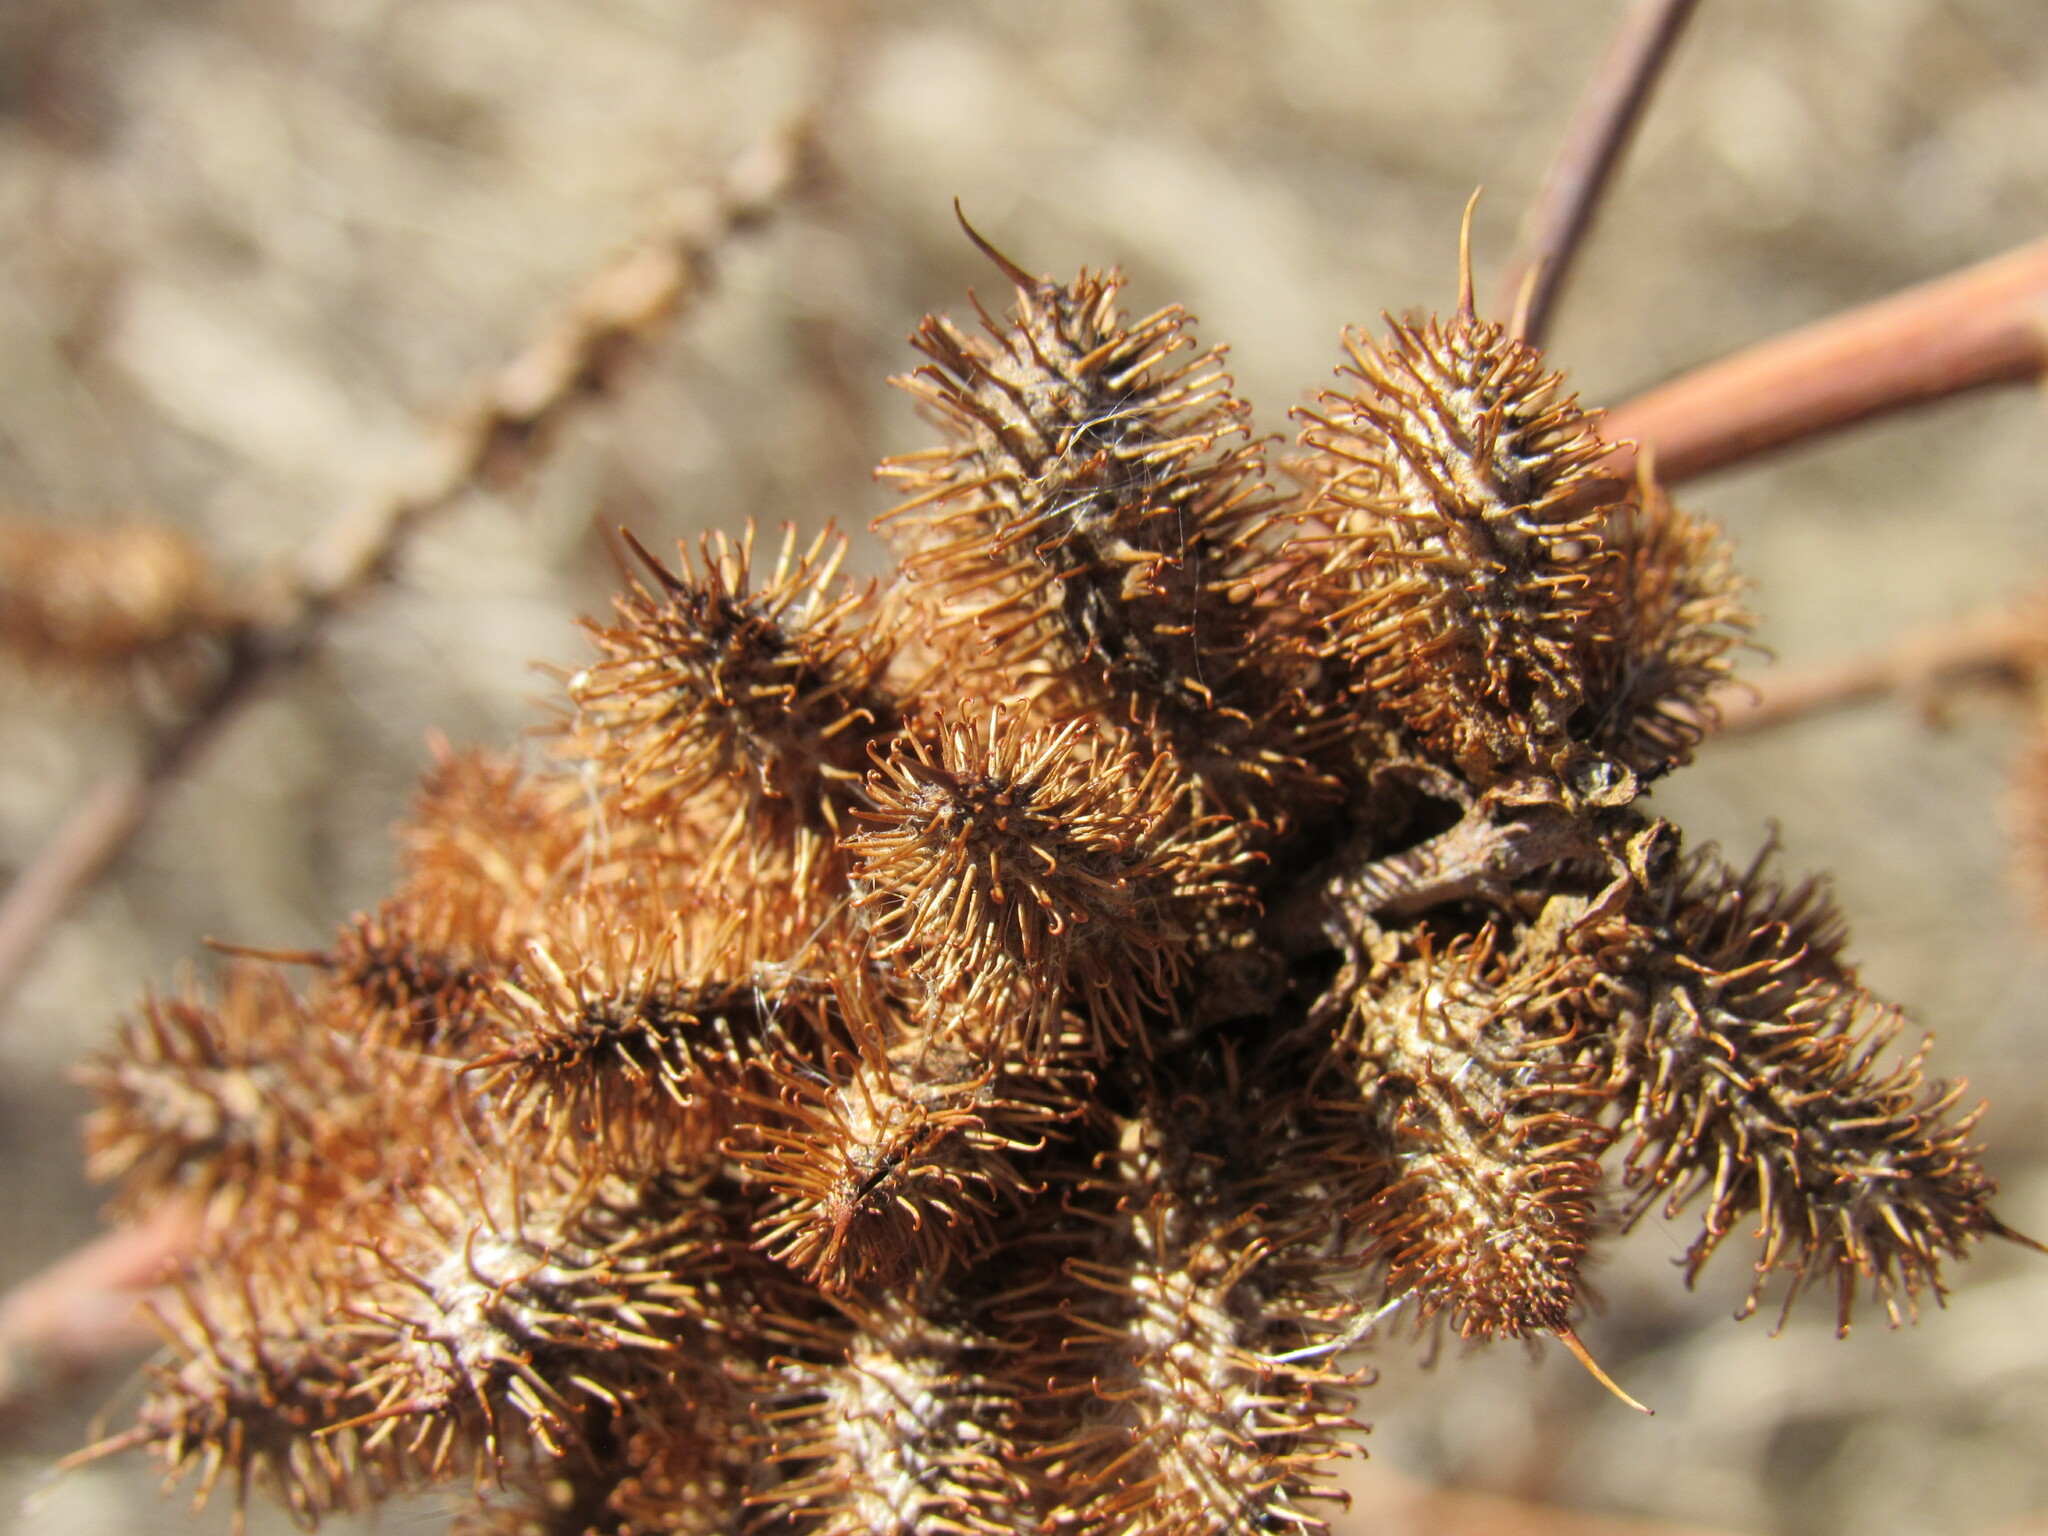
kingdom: Plantae
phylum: Tracheophyta
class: Magnoliopsida
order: Fabales
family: Fabaceae
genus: Glycyrrhiza
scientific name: Glycyrrhiza lepidota
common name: American liquorice
